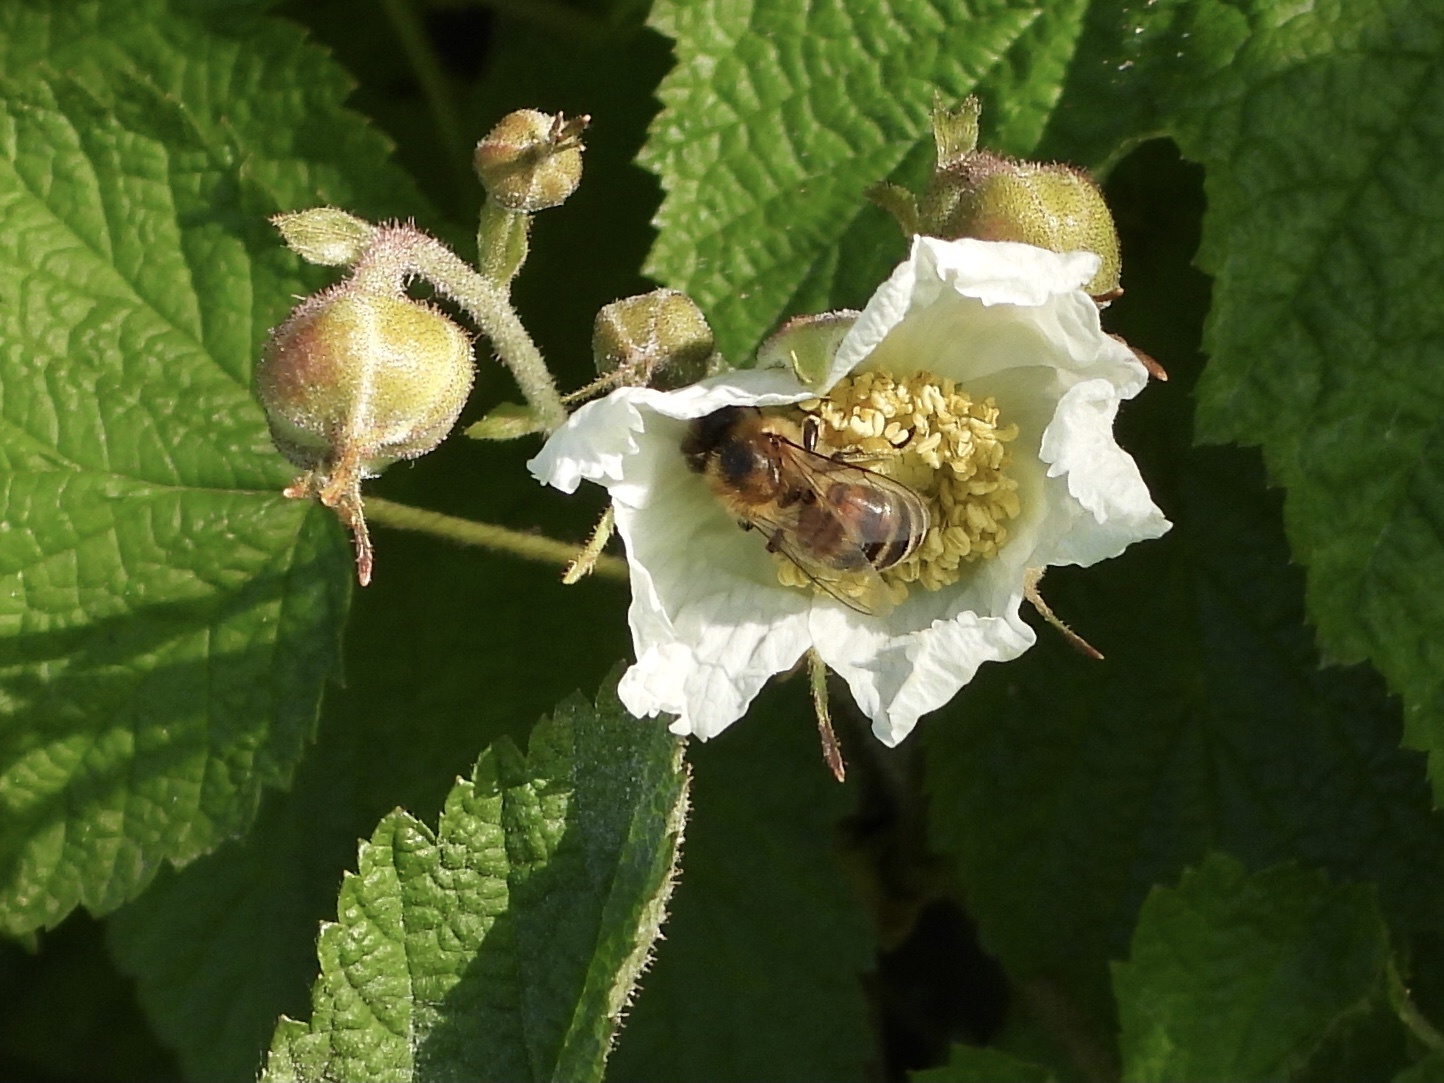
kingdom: Animalia
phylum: Arthropoda
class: Insecta
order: Hymenoptera
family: Apidae
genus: Apis
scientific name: Apis mellifera
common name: Honey bee
